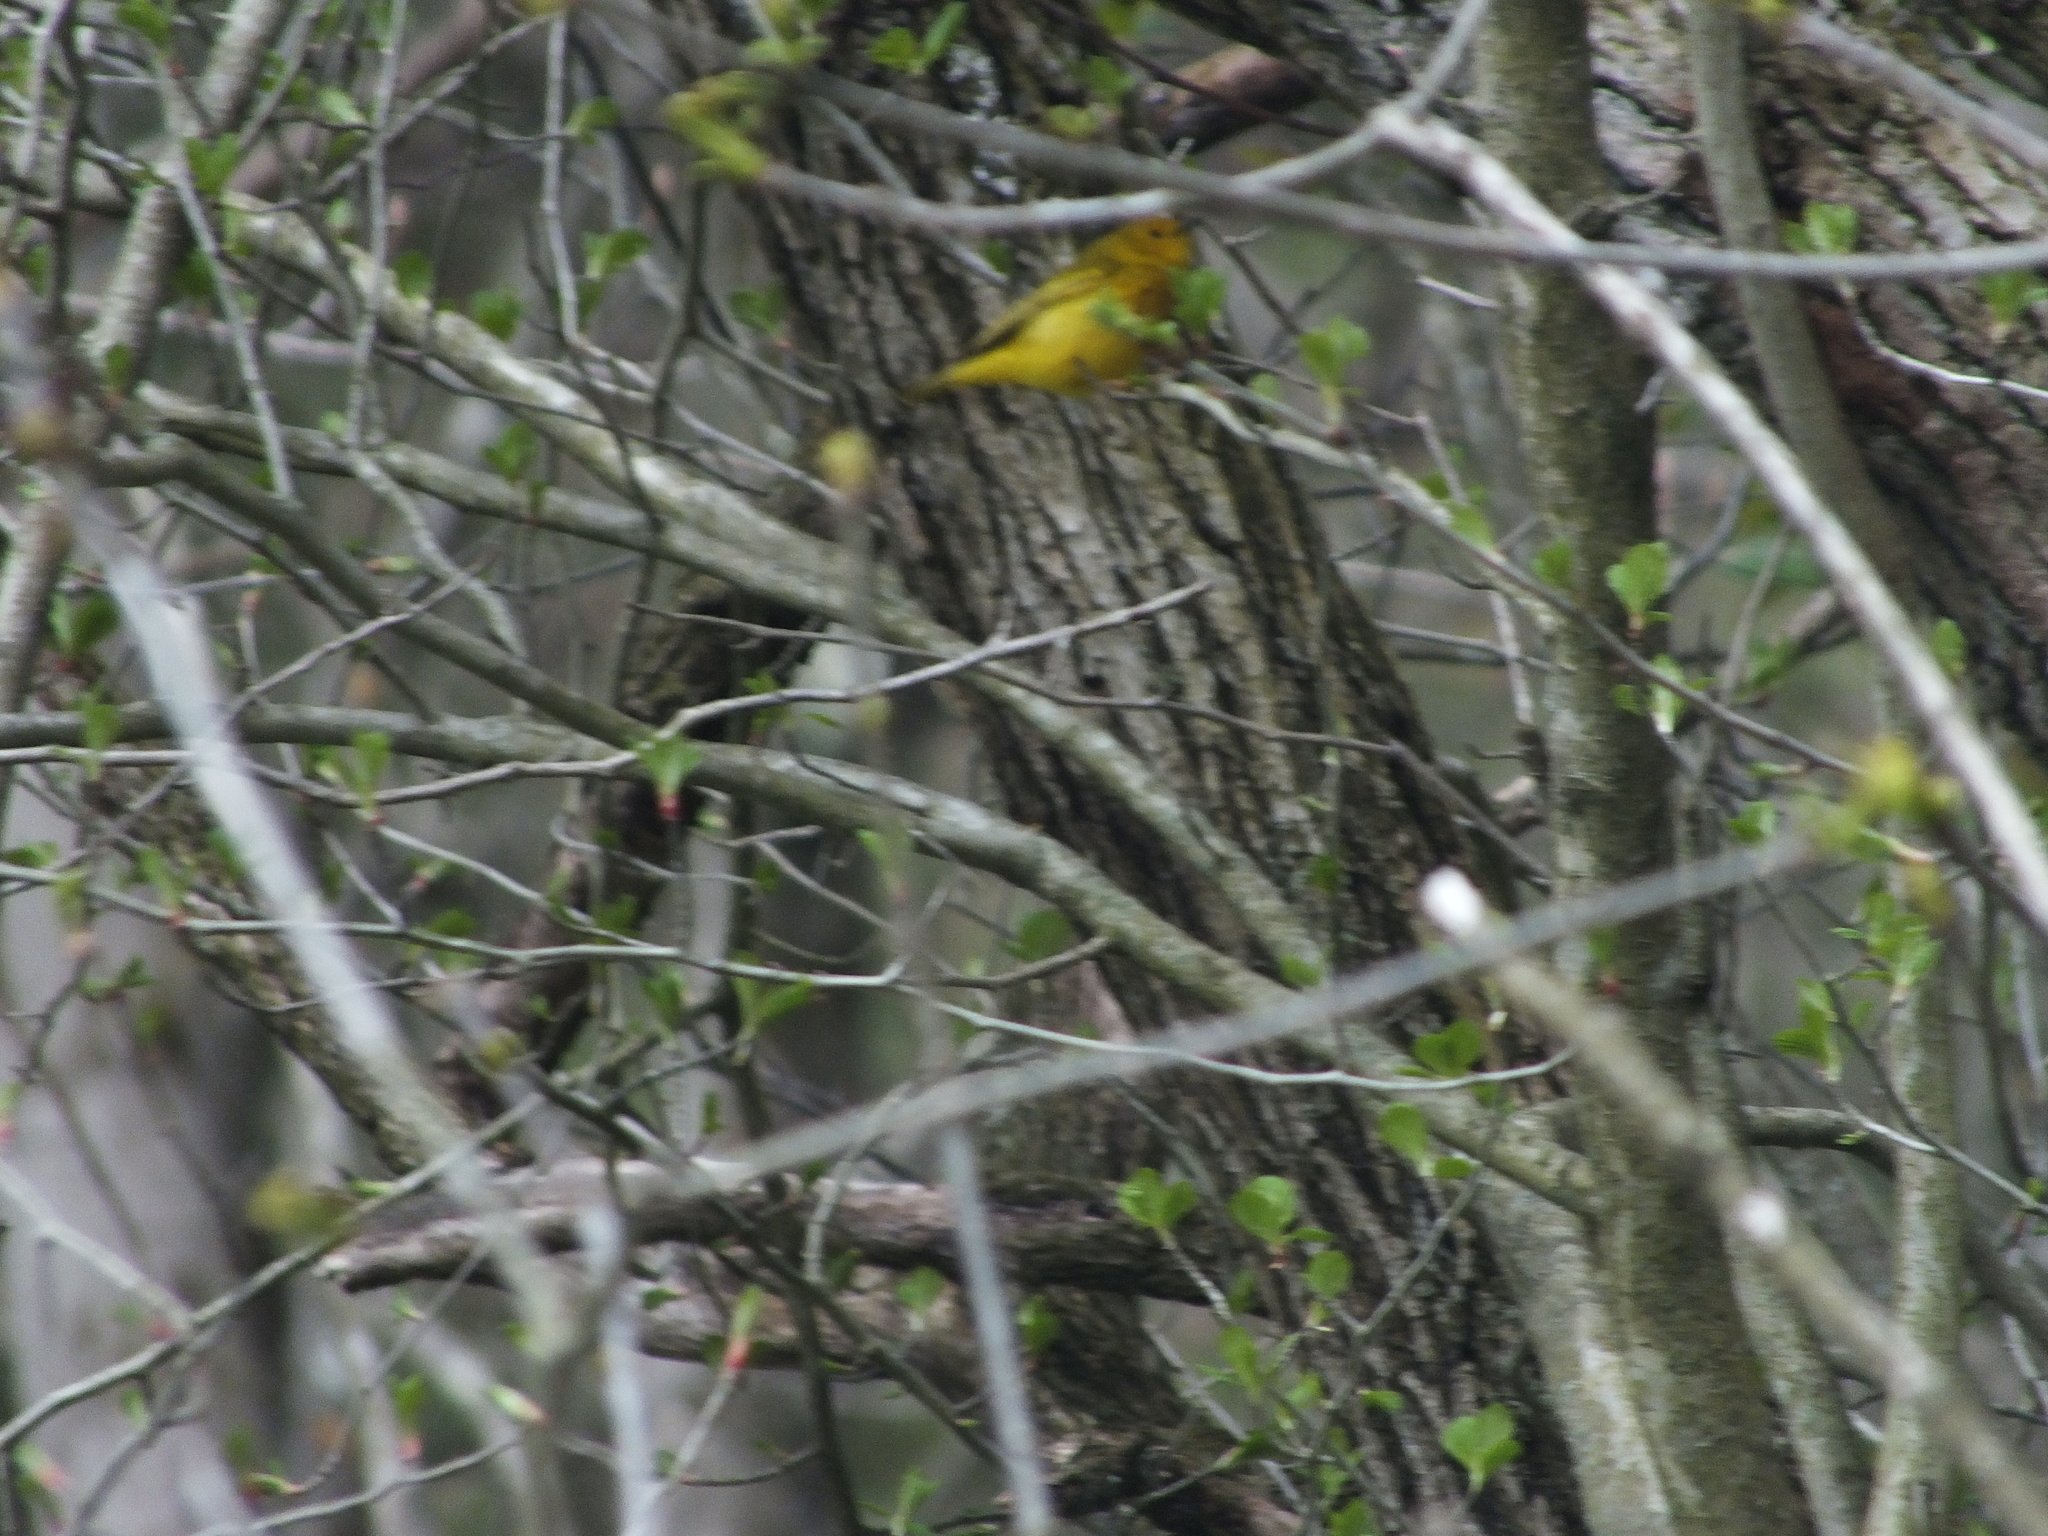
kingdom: Animalia
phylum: Chordata
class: Aves
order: Passeriformes
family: Parulidae
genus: Setophaga
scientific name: Setophaga petechia
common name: Yellow warbler
